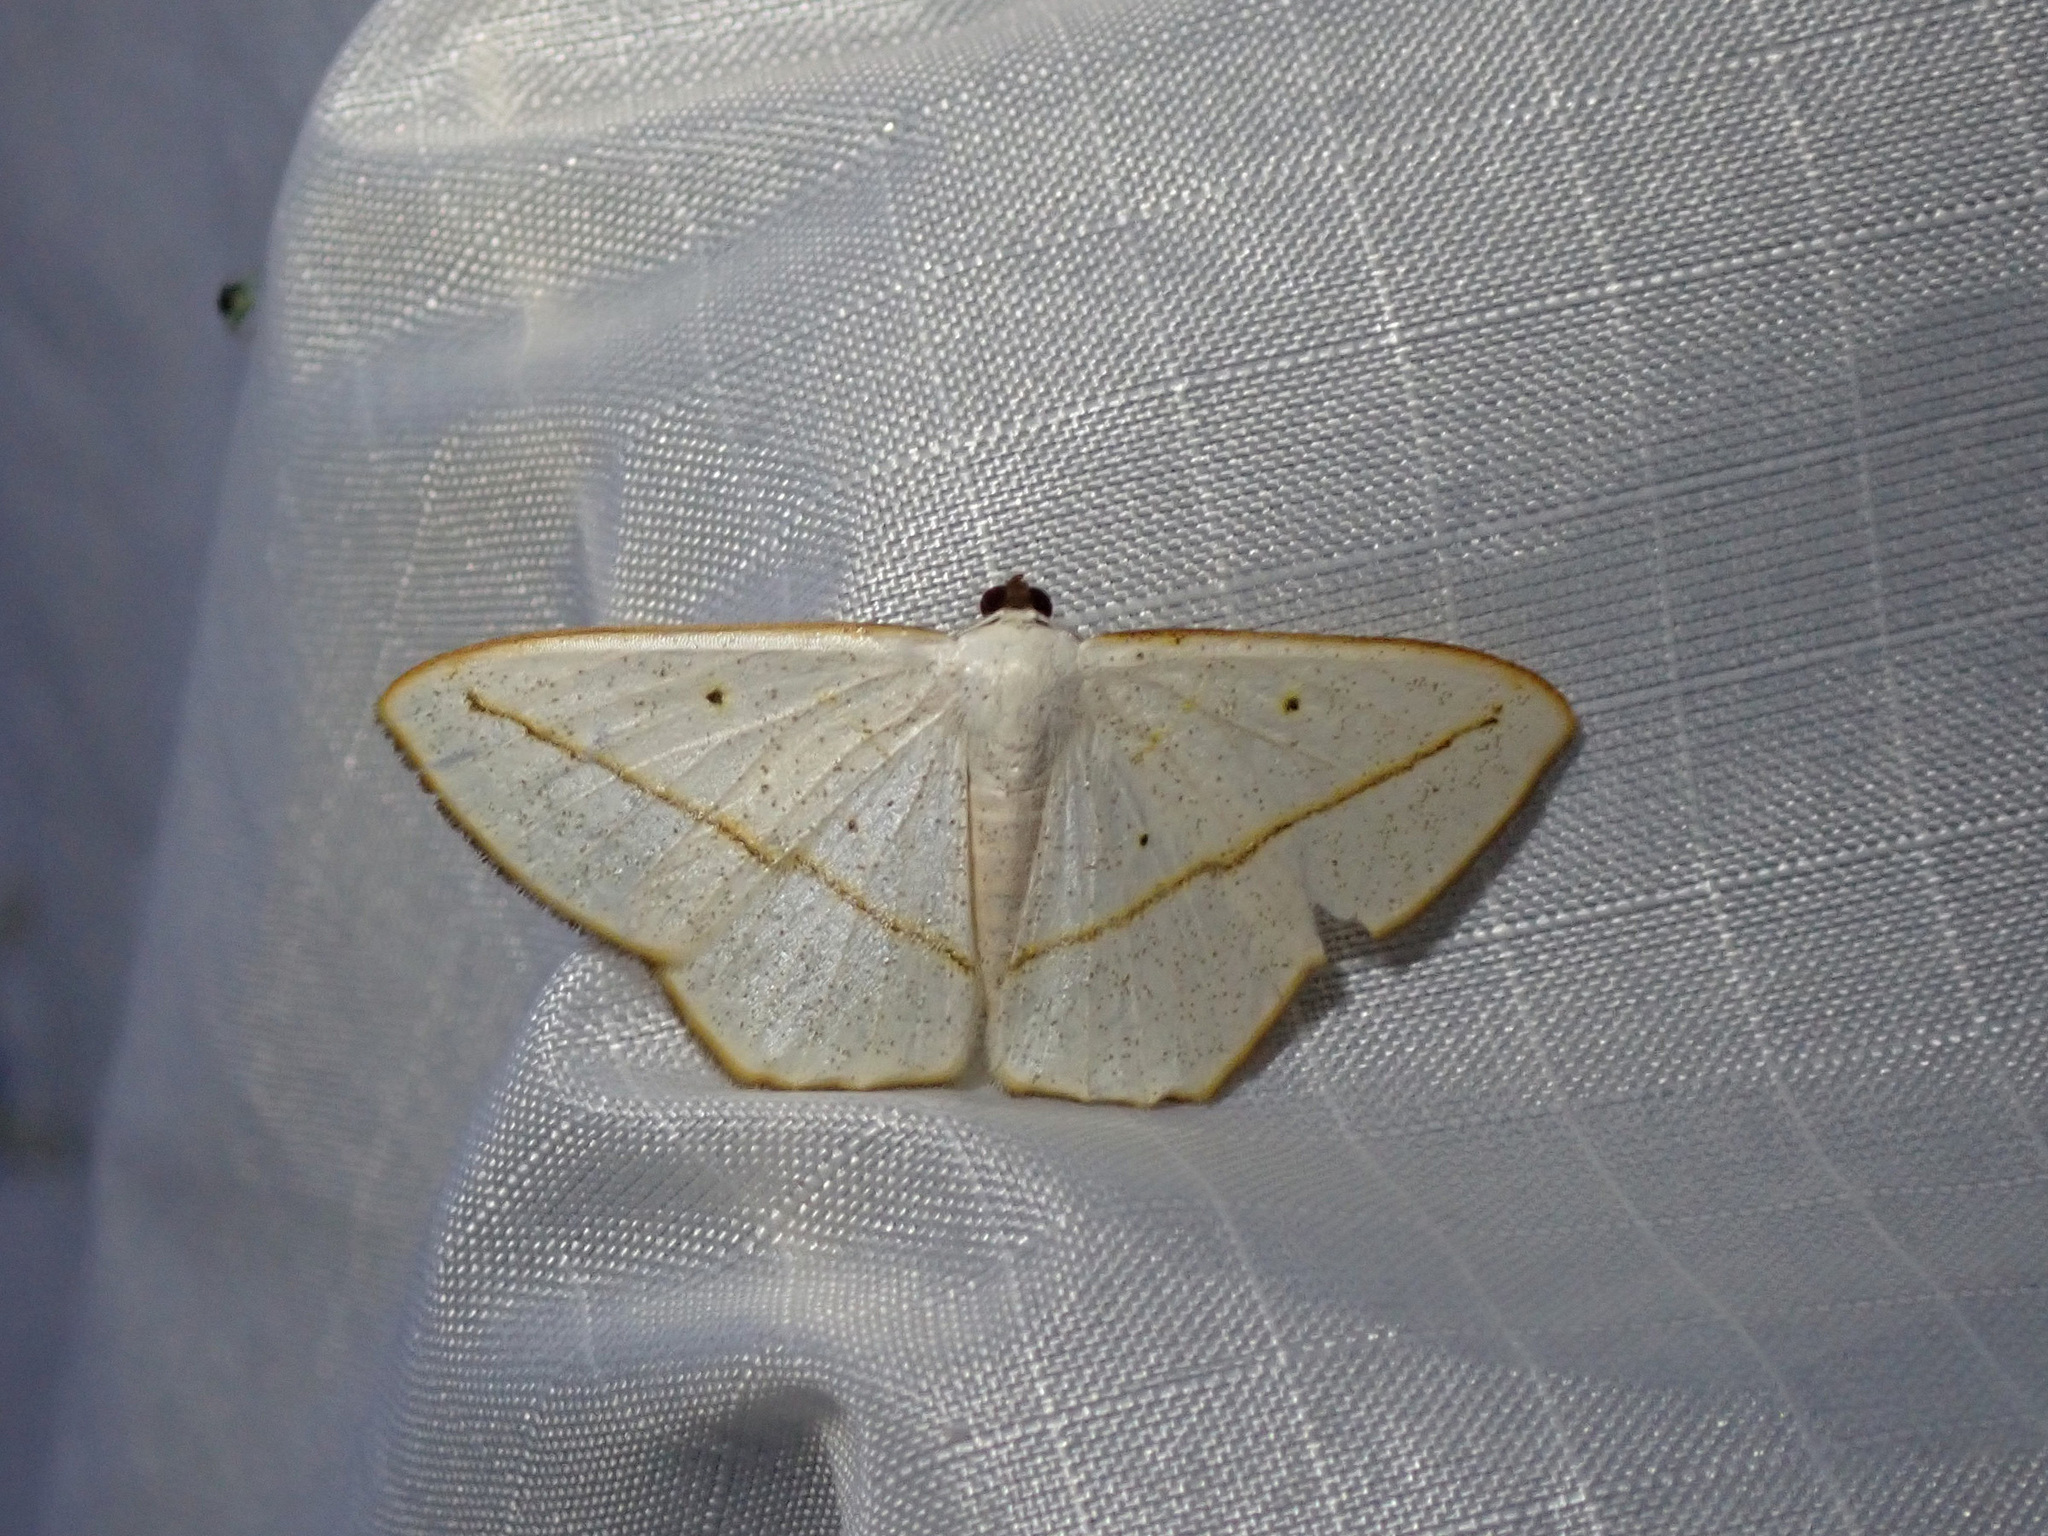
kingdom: Animalia
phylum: Arthropoda
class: Insecta
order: Lepidoptera
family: Geometridae
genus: Lomographa
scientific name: Lomographa inamata
